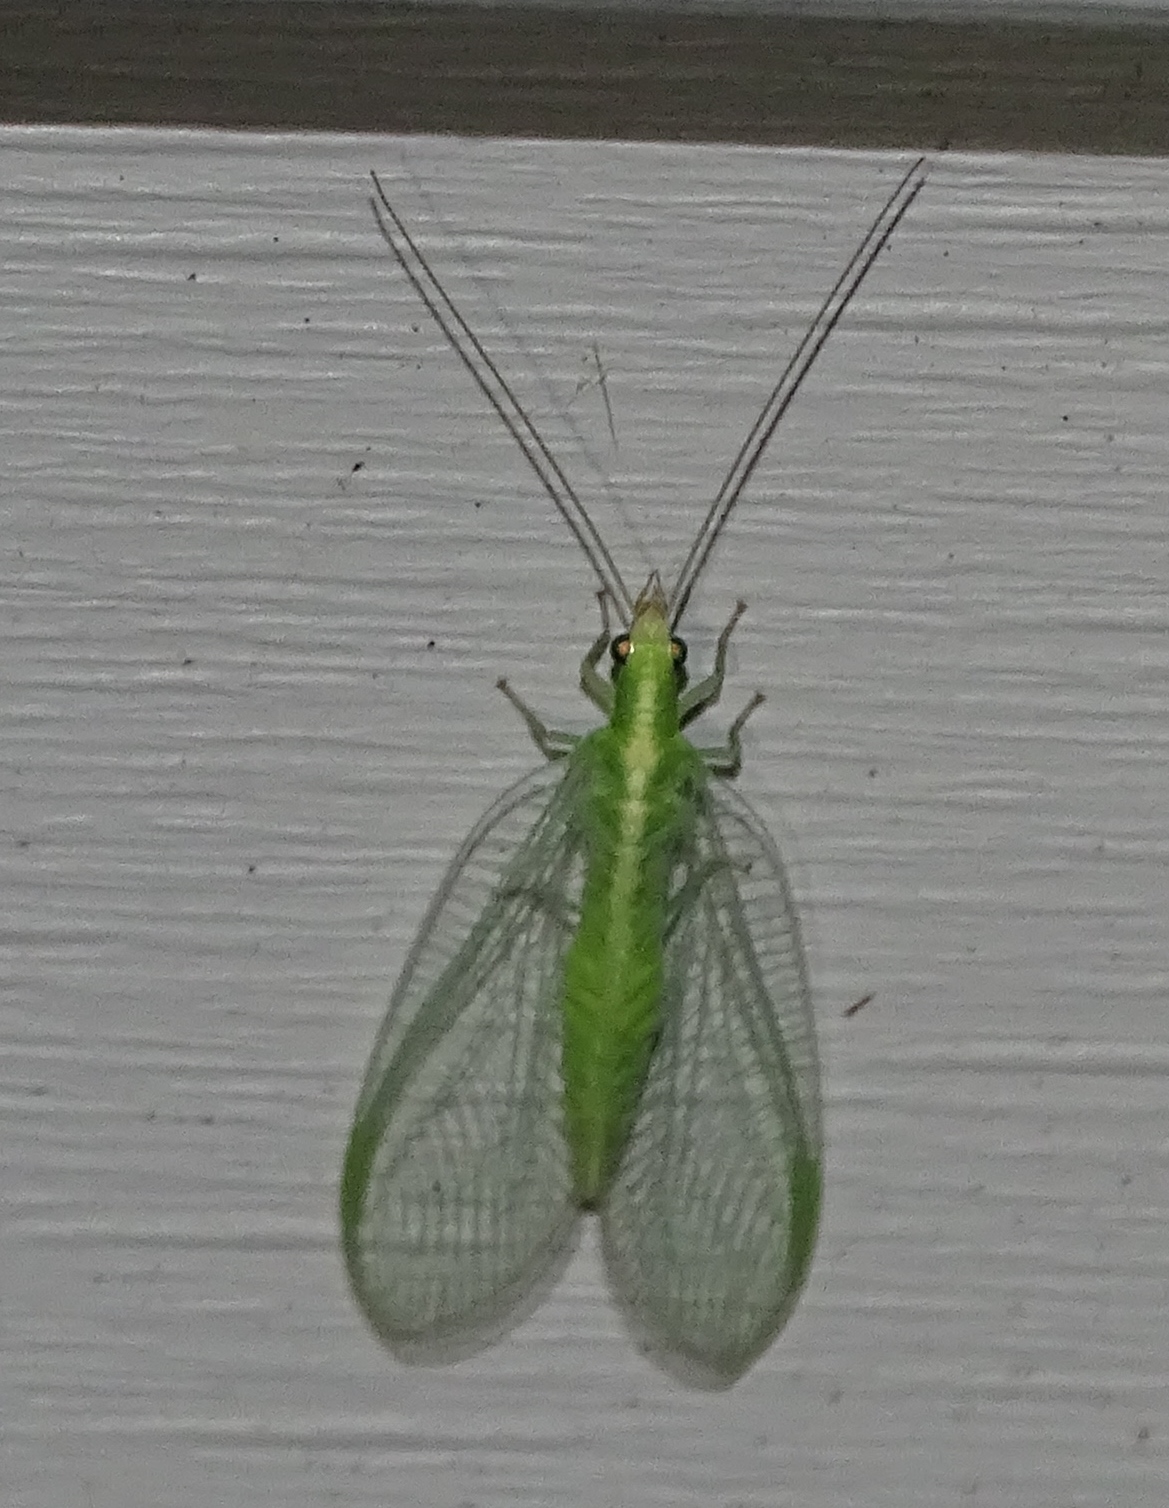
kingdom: Animalia
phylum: Arthropoda
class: Insecta
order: Neuroptera
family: Chrysopidae
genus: Chrysoperla
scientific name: Chrysoperla
